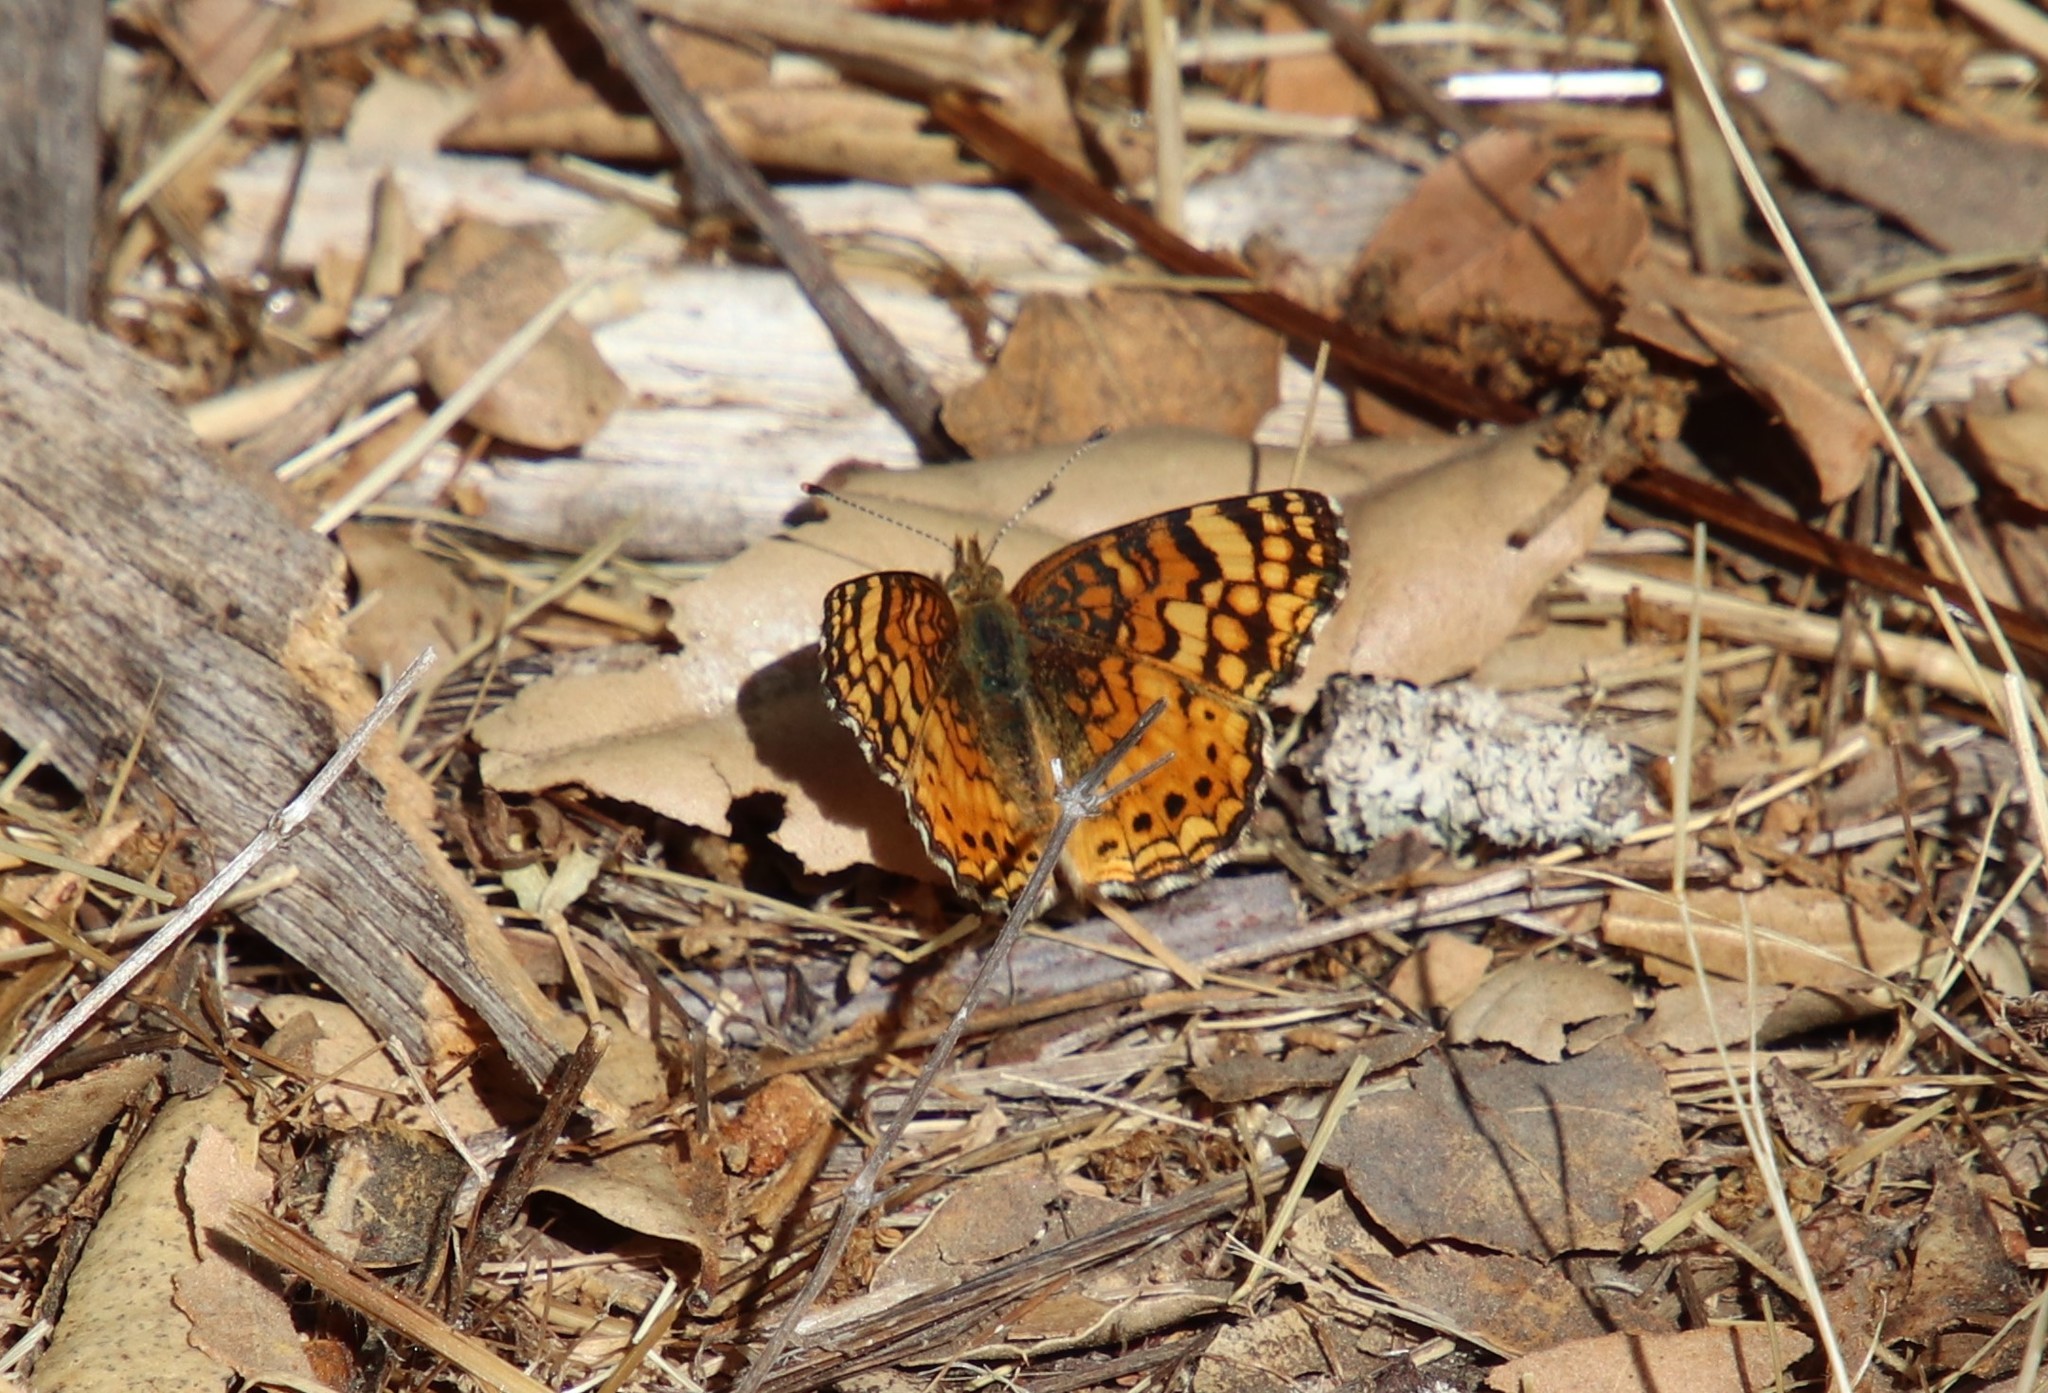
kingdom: Animalia
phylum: Arthropoda
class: Insecta
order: Lepidoptera
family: Nymphalidae
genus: Eresia
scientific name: Eresia aveyrona
